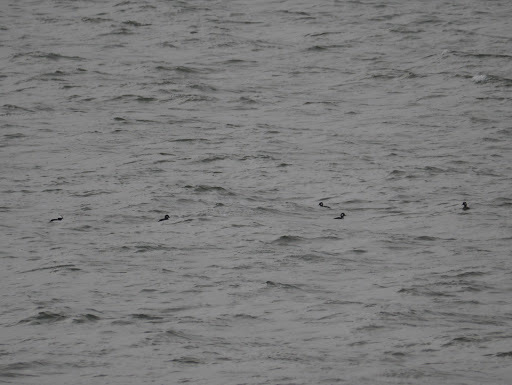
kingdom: Animalia
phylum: Chordata
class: Aves
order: Anseriformes
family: Anatidae
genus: Bucephala
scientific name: Bucephala albeola
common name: Bufflehead
